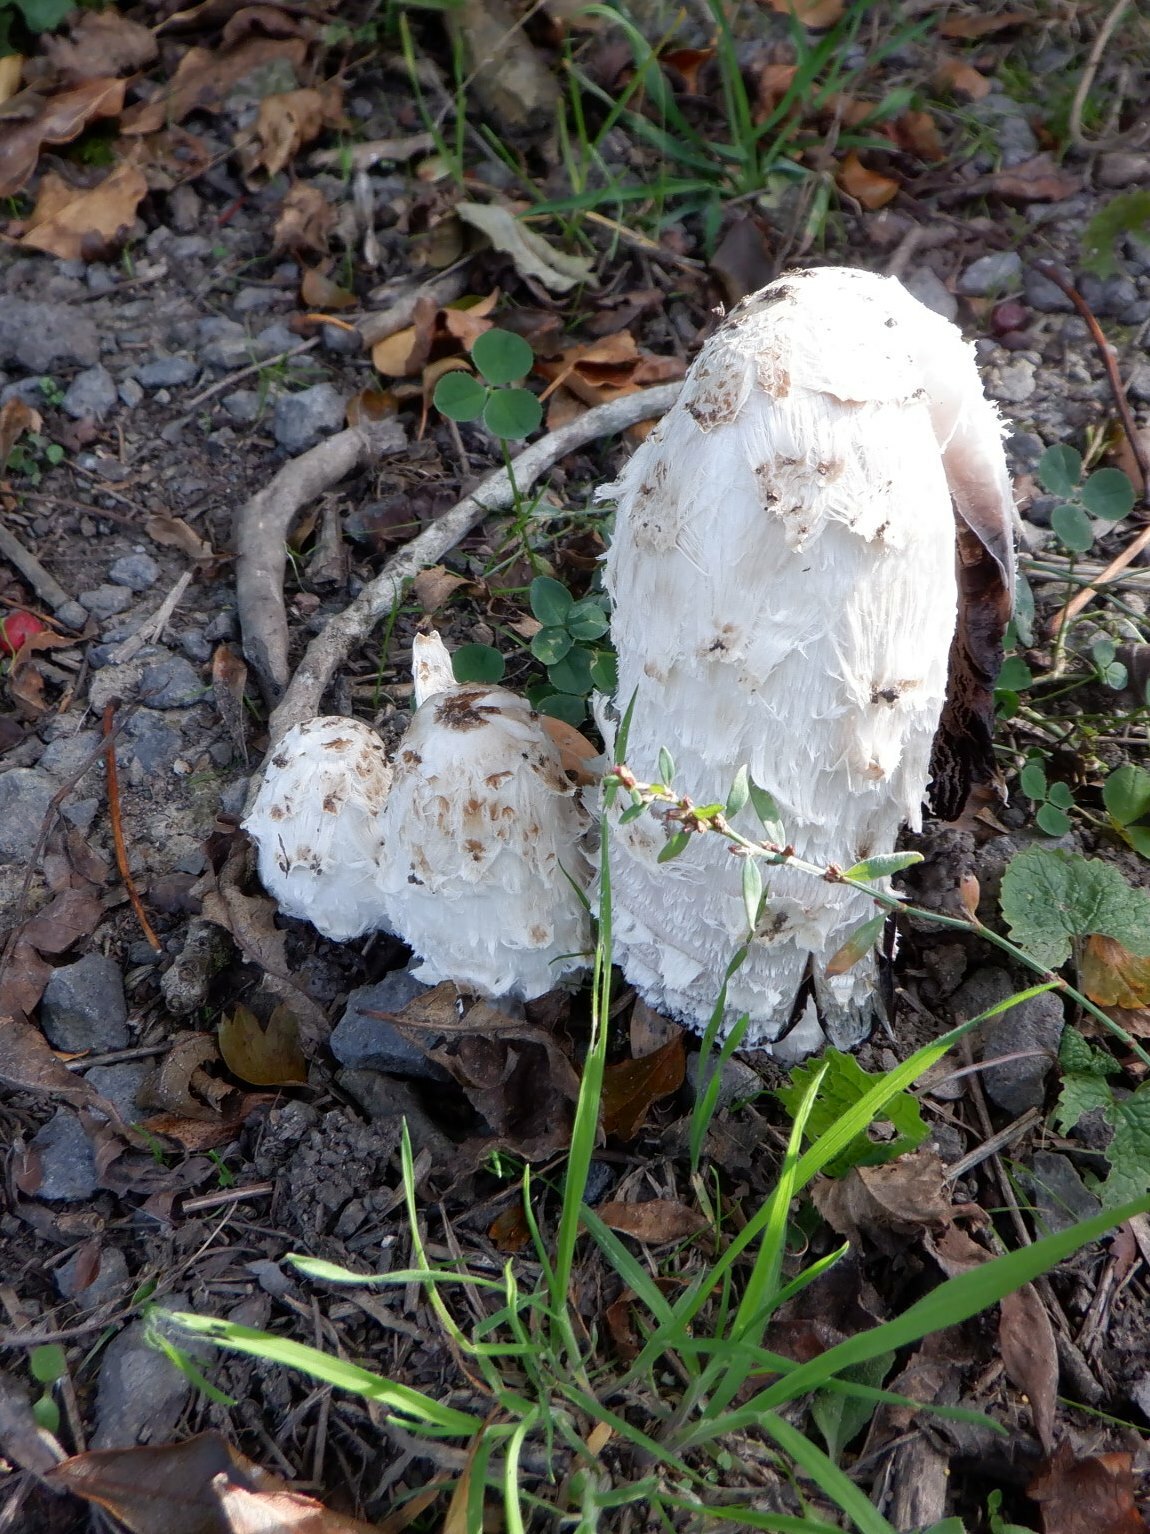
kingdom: Fungi
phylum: Basidiomycota
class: Agaricomycetes
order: Agaricales
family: Agaricaceae
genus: Coprinus
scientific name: Coprinus comatus
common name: Lawyer's wig
